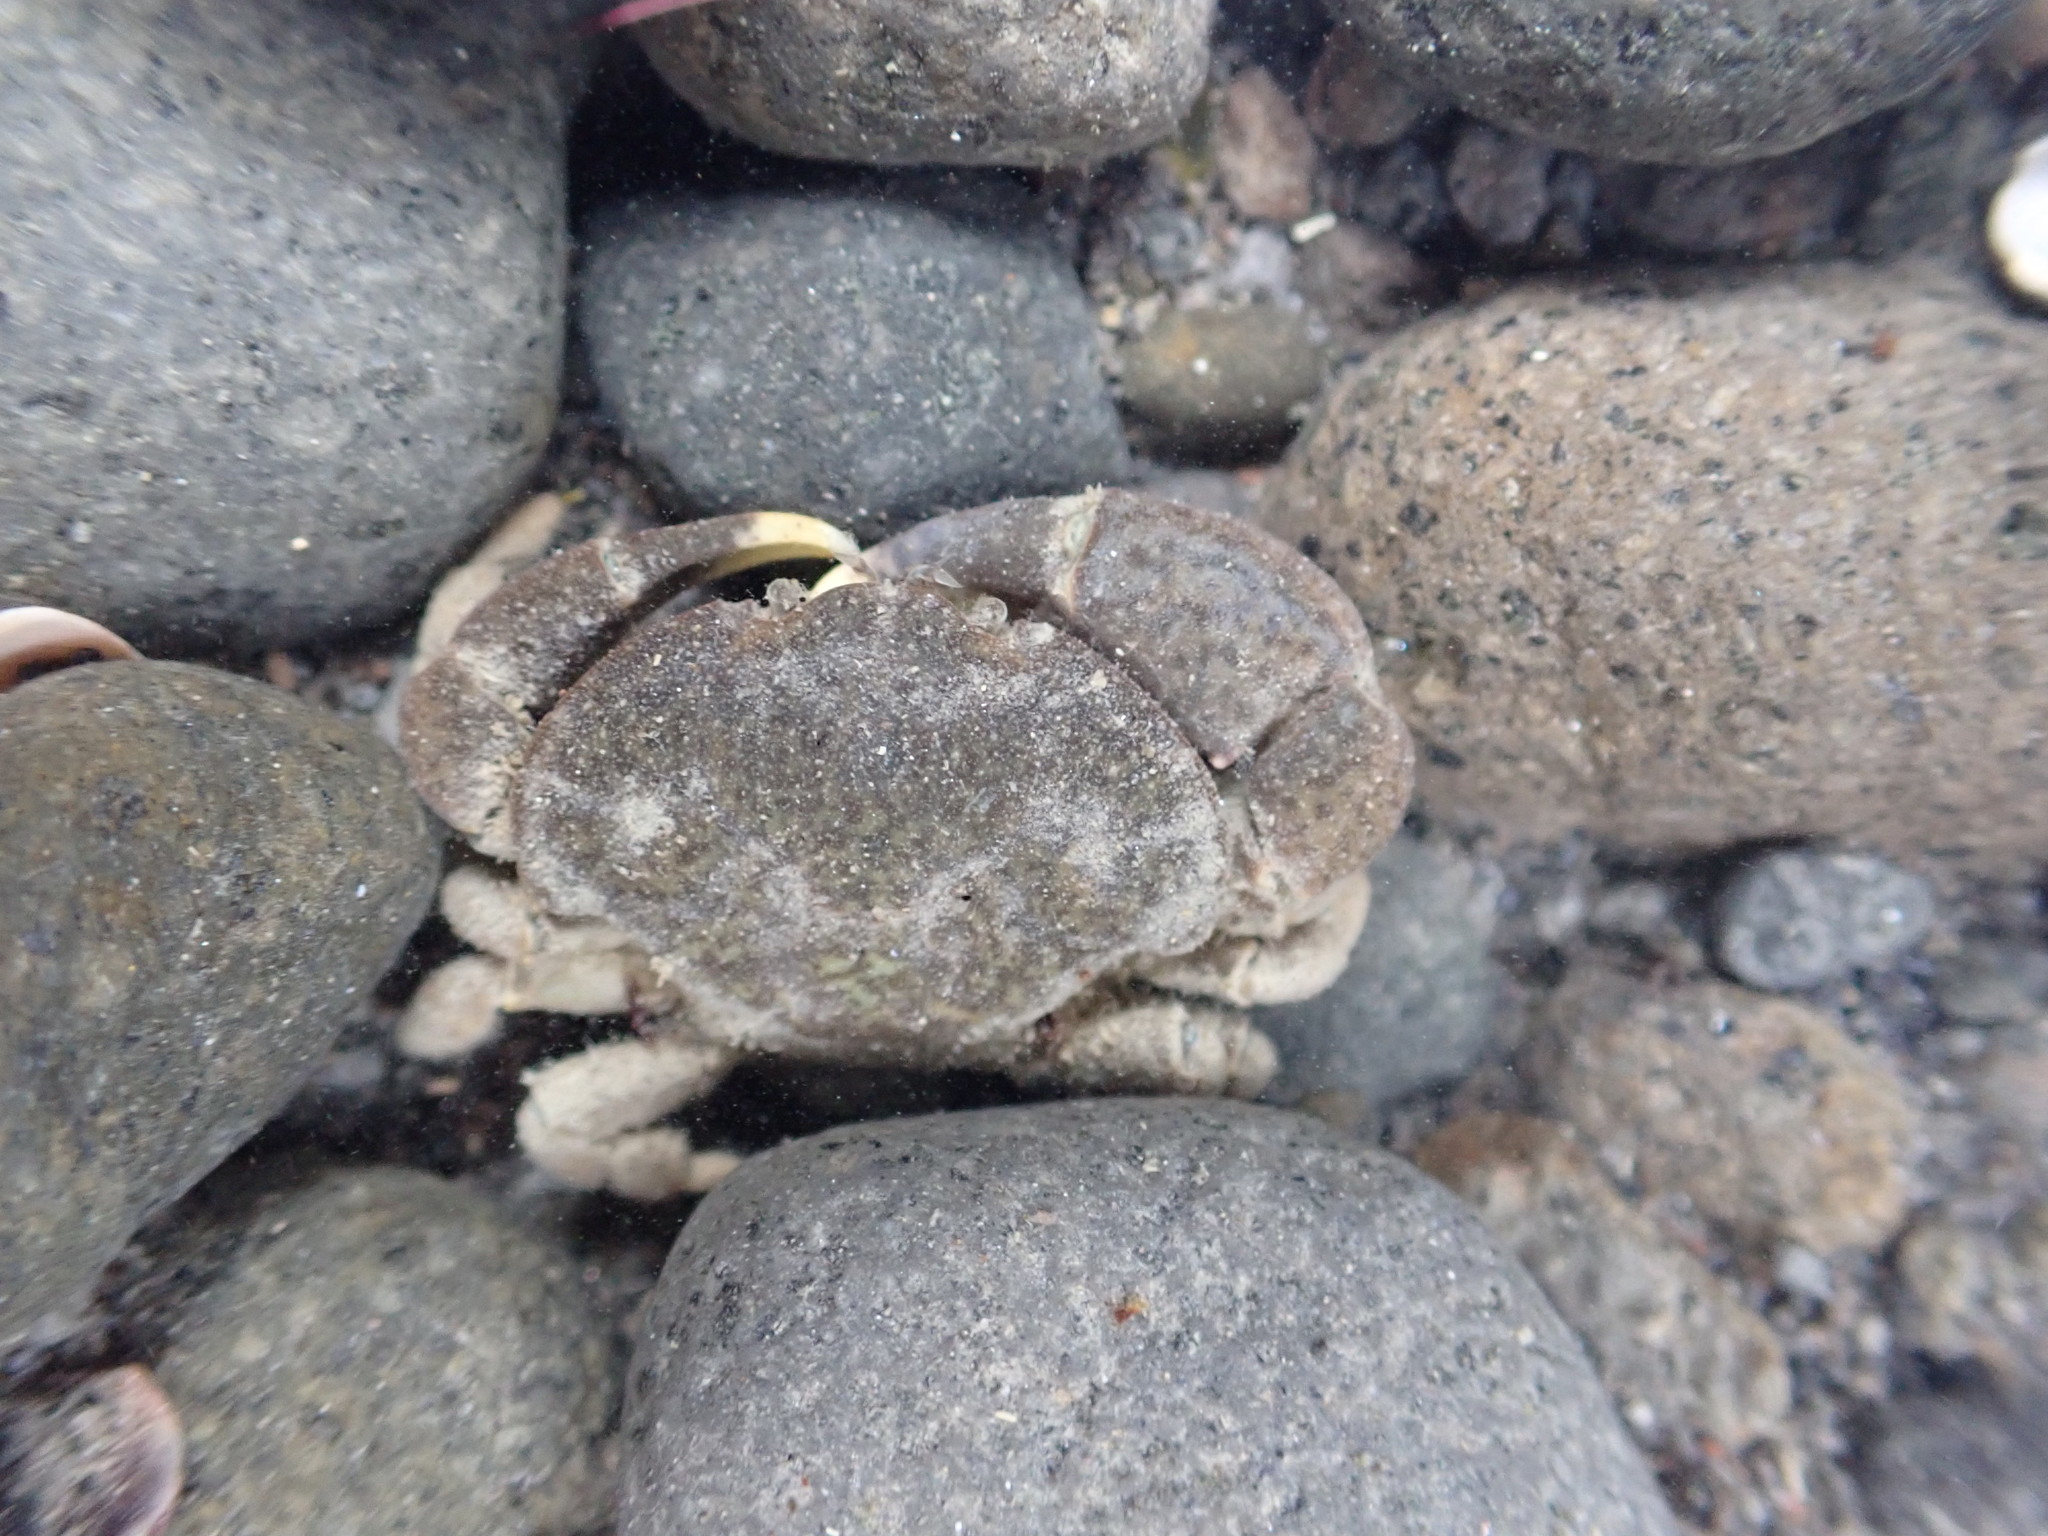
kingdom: Animalia
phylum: Arthropoda
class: Malacostraca
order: Decapoda
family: Heteroziidae
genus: Heterozius
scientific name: Heterozius rotundifrons
